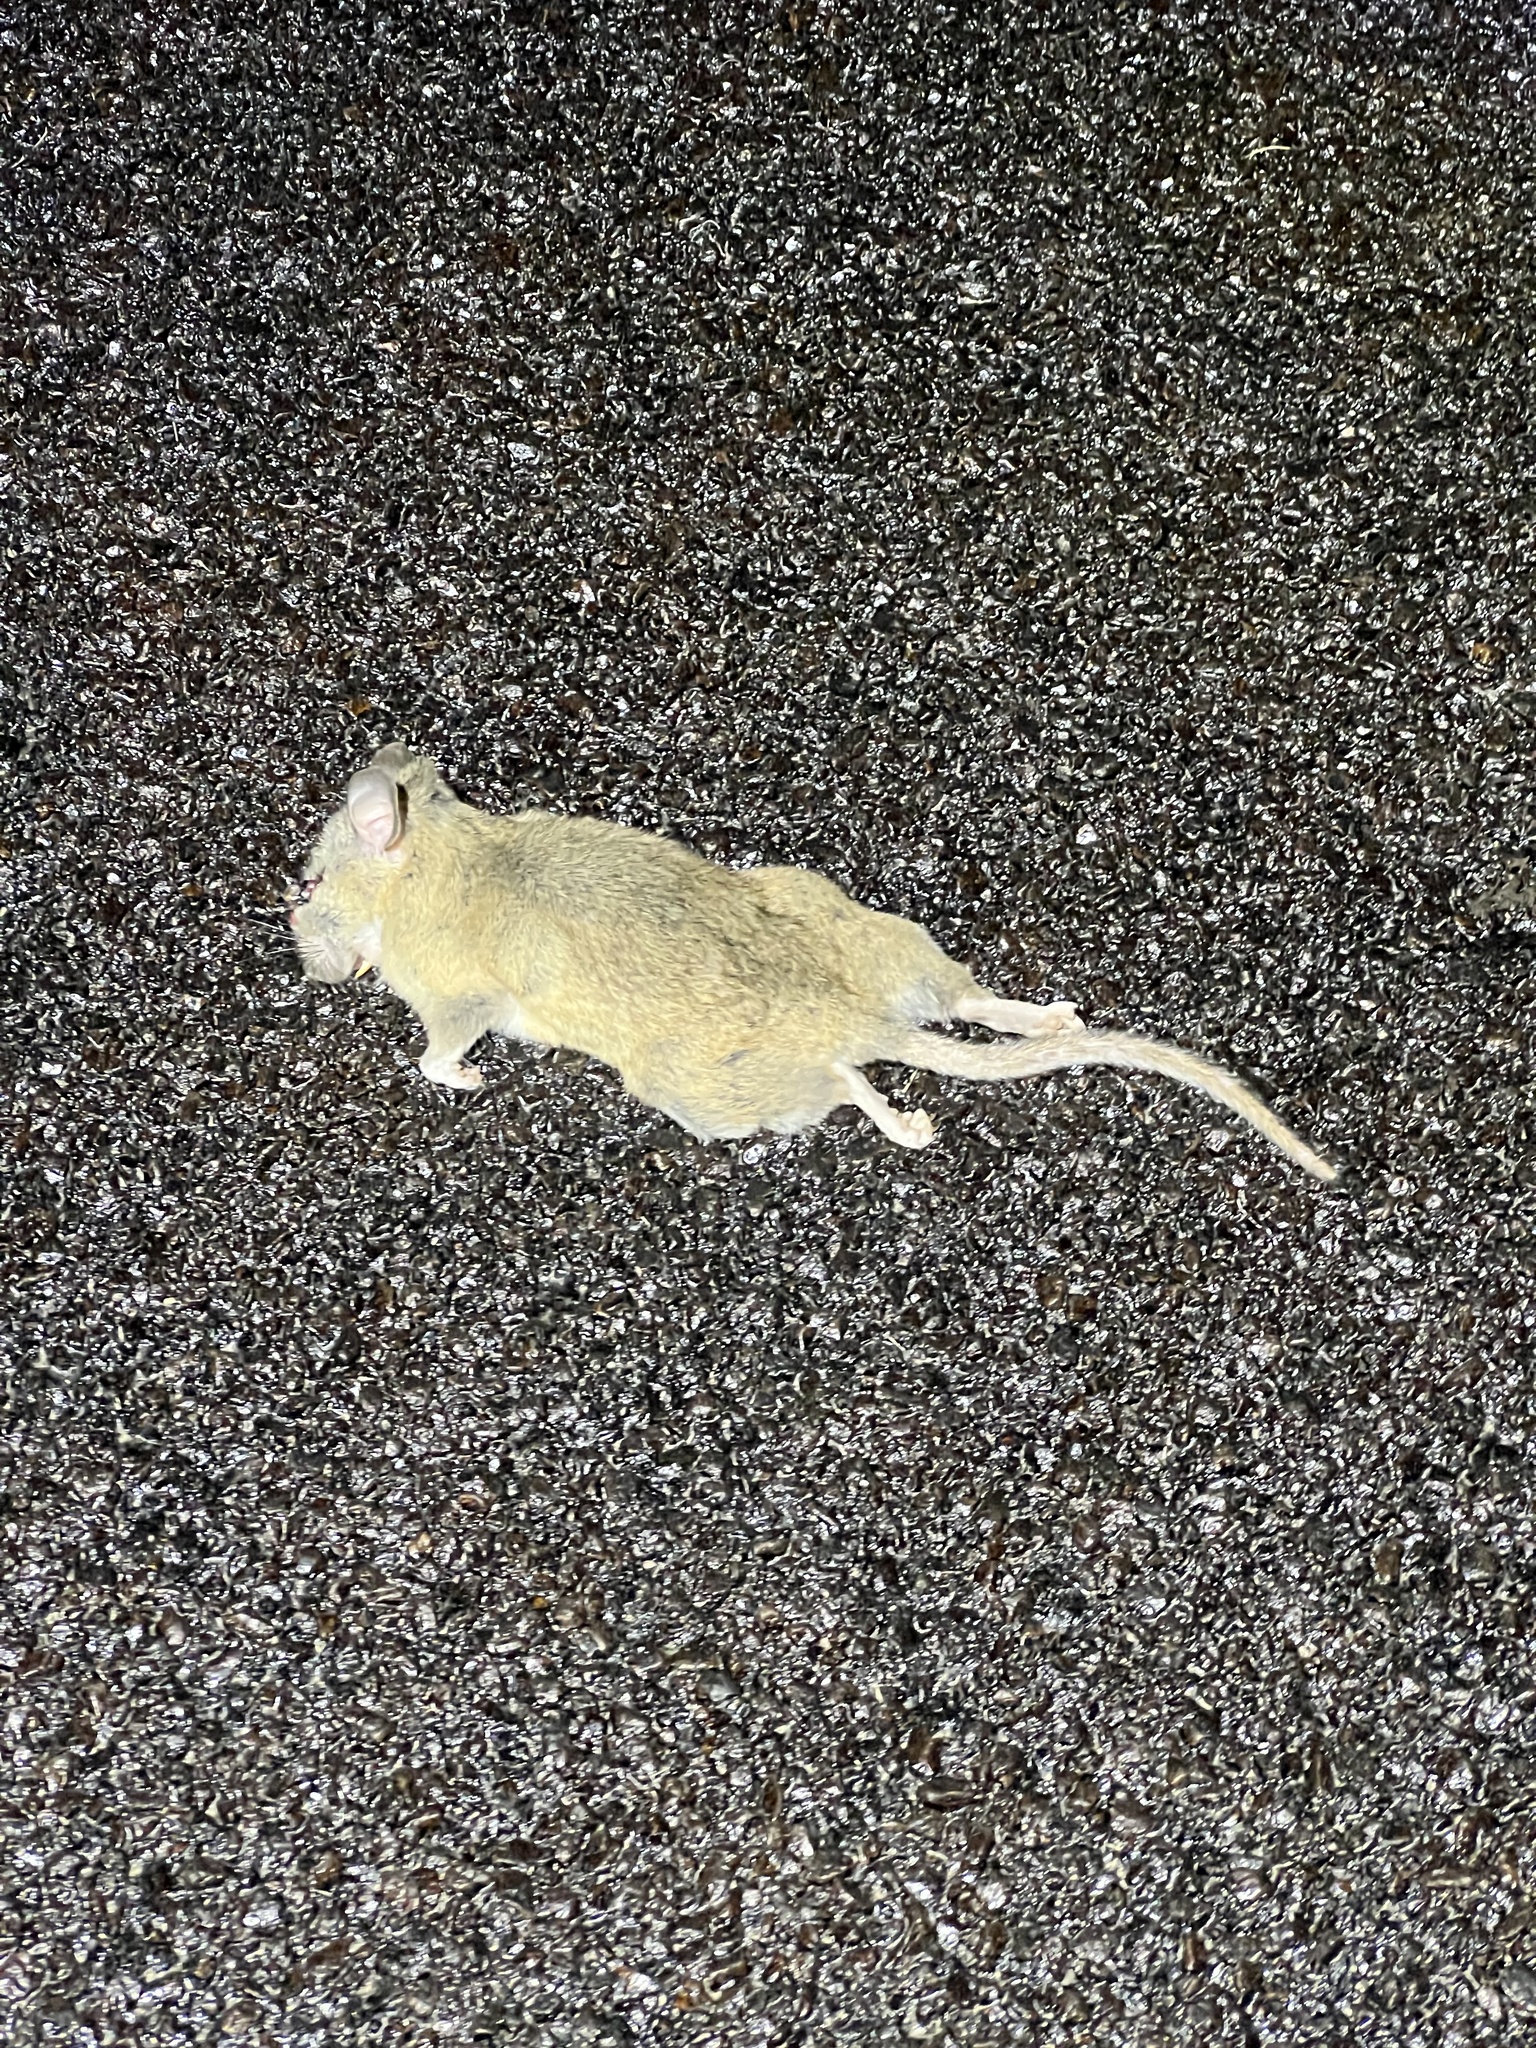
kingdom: Animalia
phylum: Chordata
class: Mammalia
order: Rodentia
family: Cricetidae
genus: Neotoma
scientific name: Neotoma albigula
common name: White-throated woodrat
